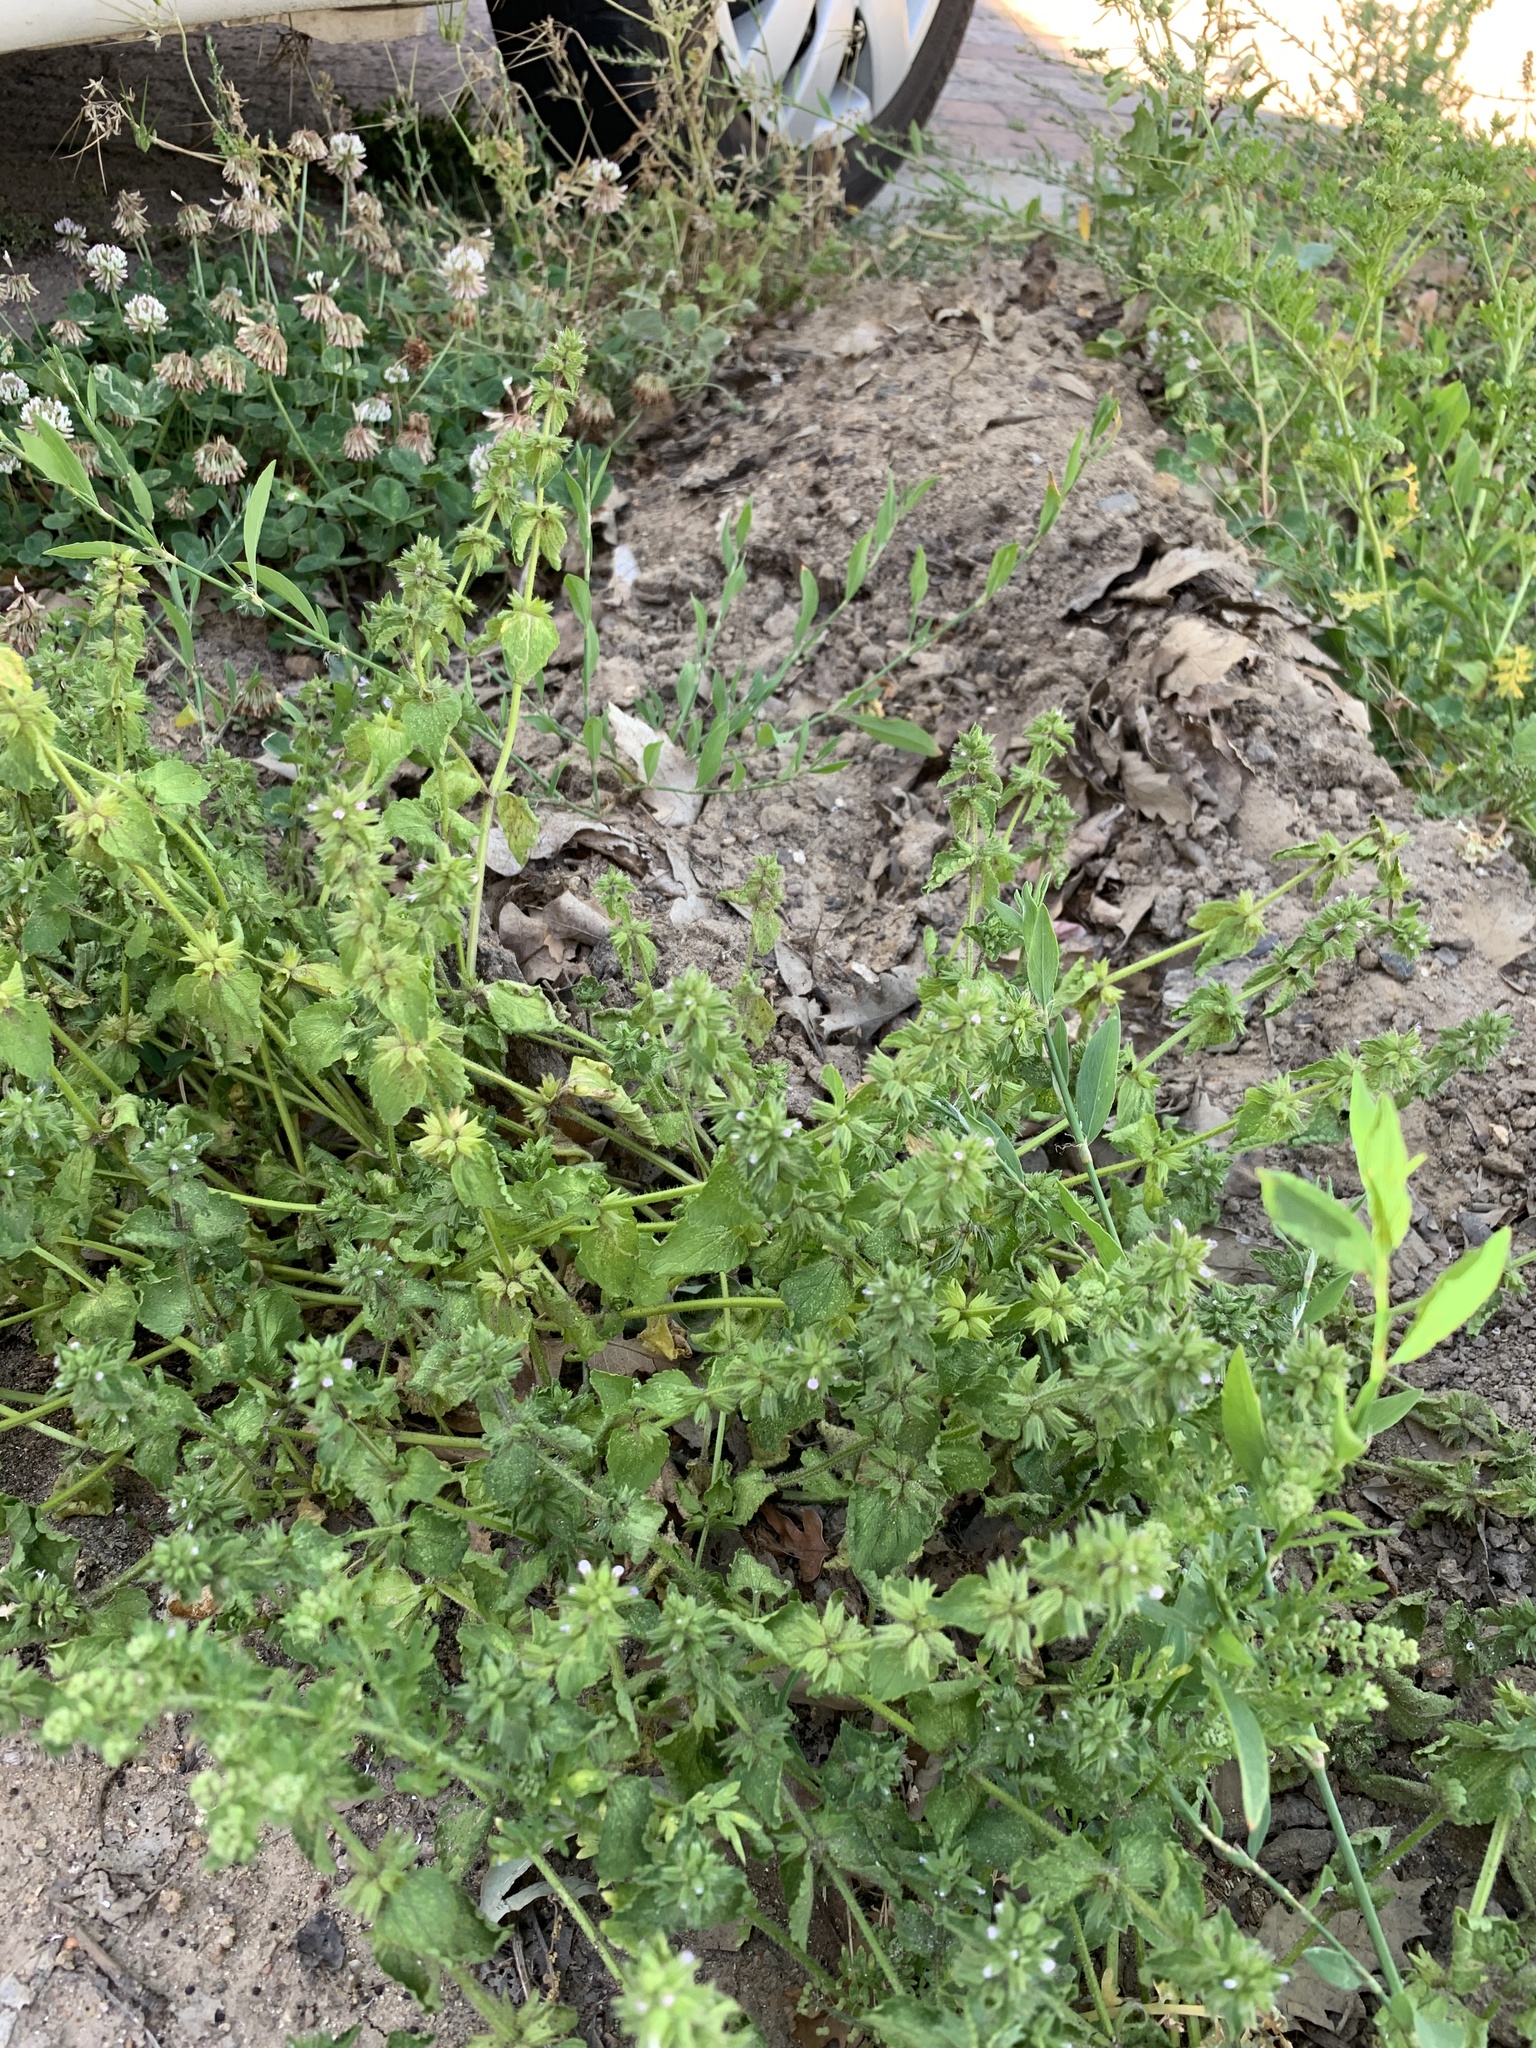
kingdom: Plantae
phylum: Tracheophyta
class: Magnoliopsida
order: Lamiales
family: Lamiaceae
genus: Stachys
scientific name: Stachys arvensis
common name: Field woundwort
